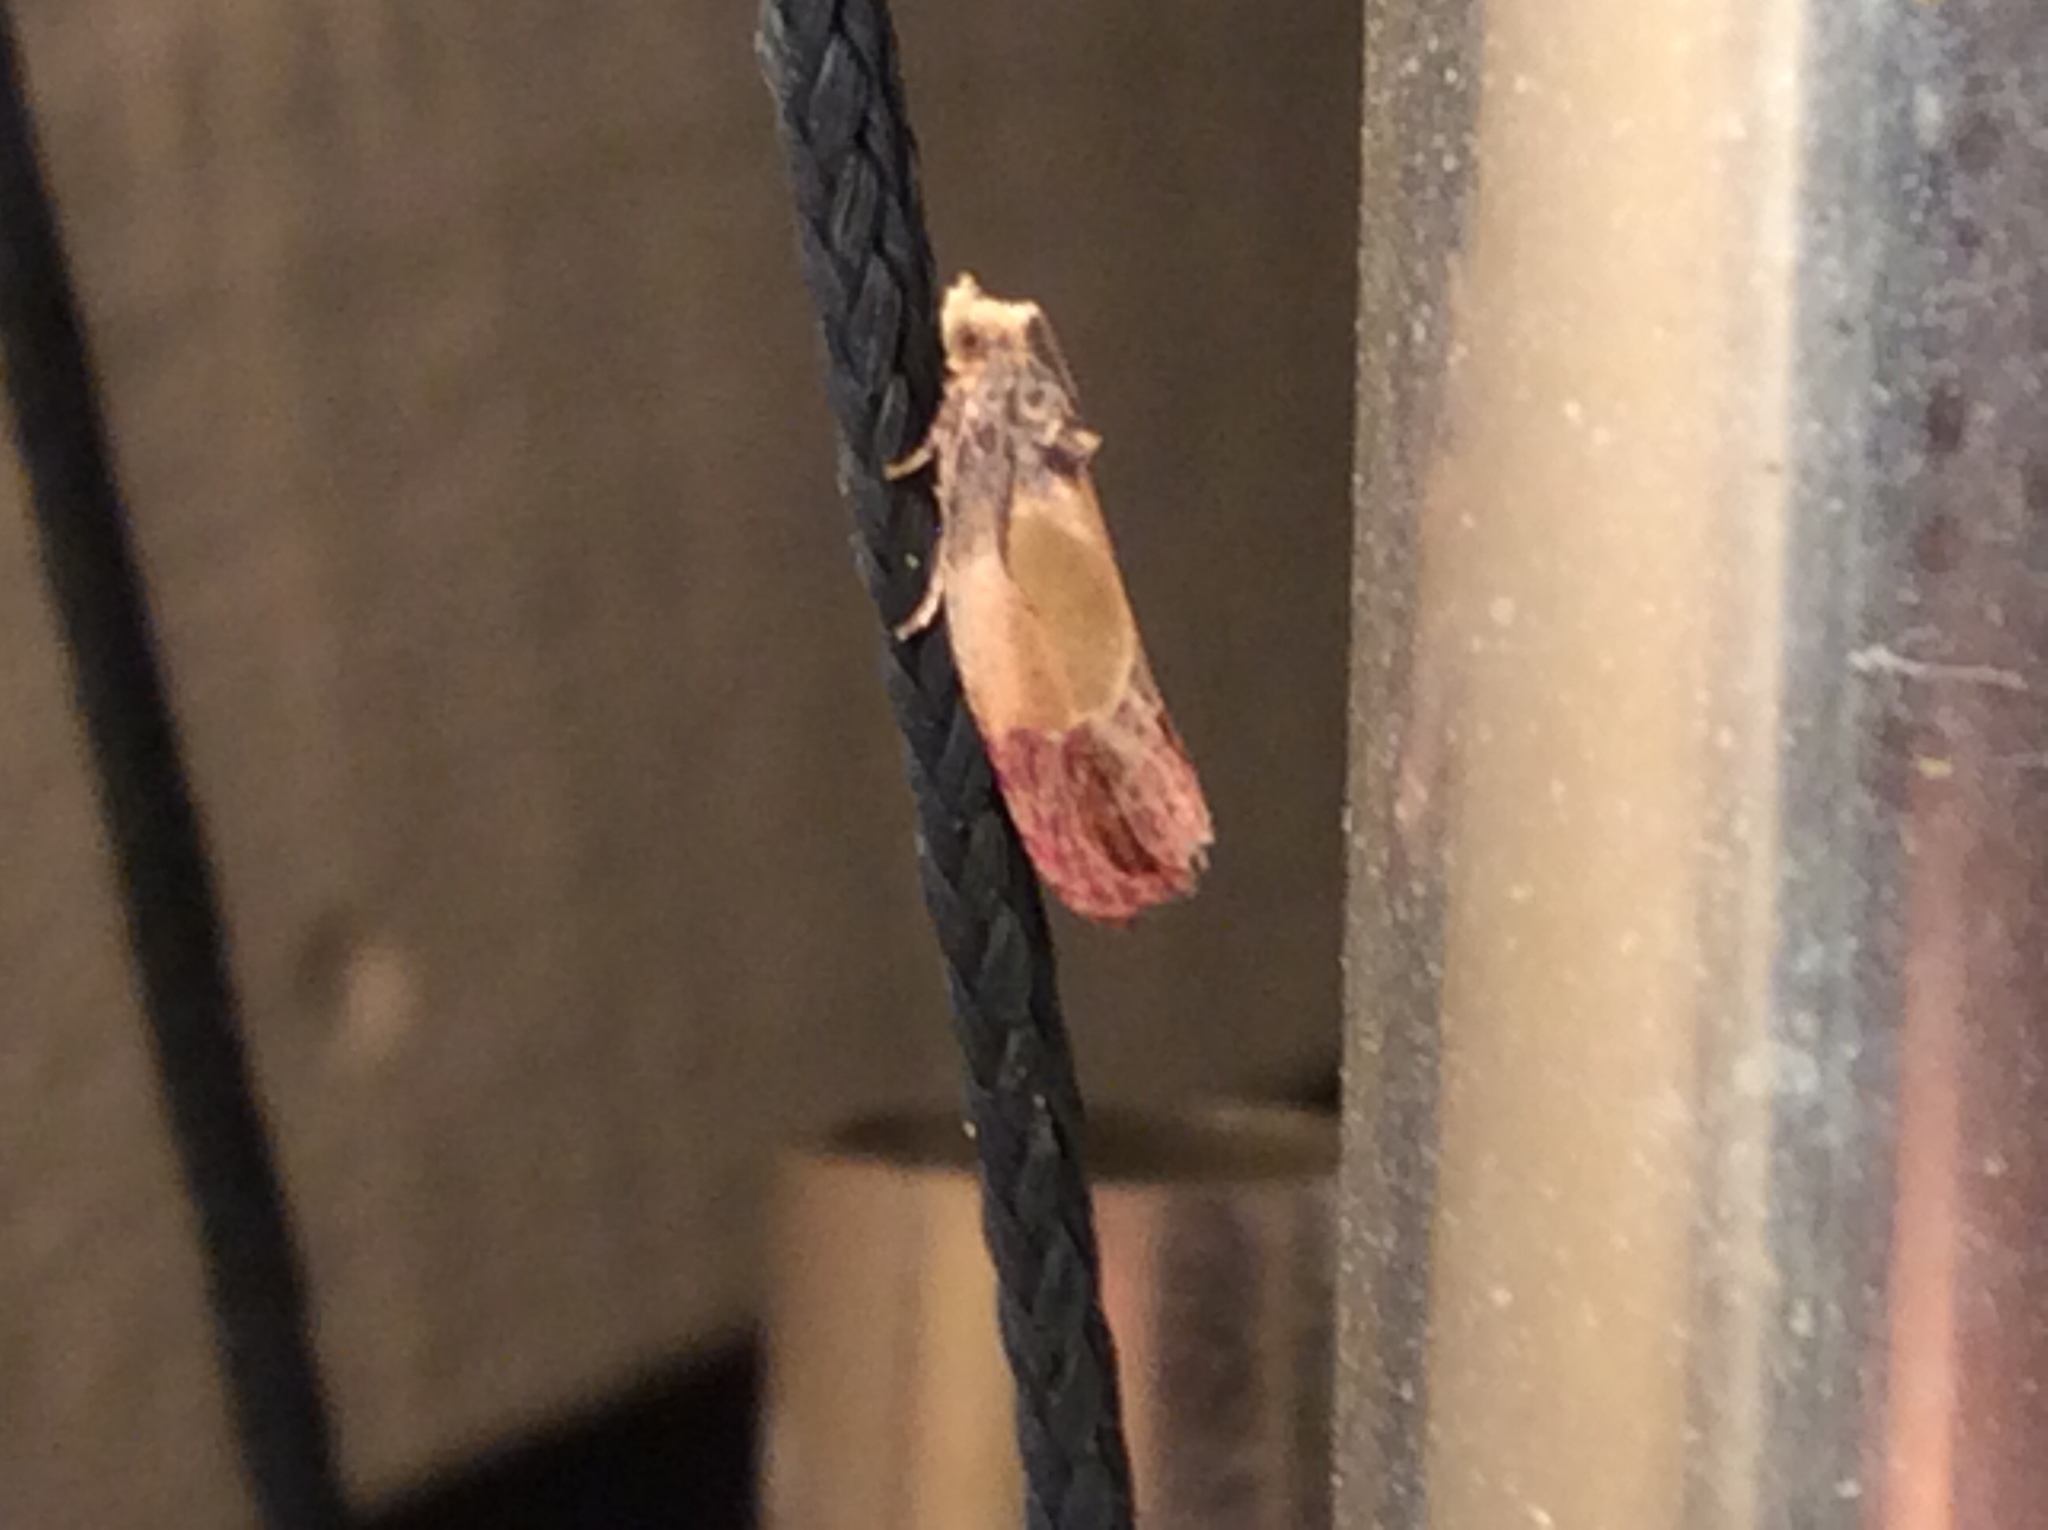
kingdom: Animalia
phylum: Arthropoda
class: Insecta
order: Lepidoptera
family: Tortricidae
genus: Eumarozia
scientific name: Eumarozia malachitana
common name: Sculptured moth
